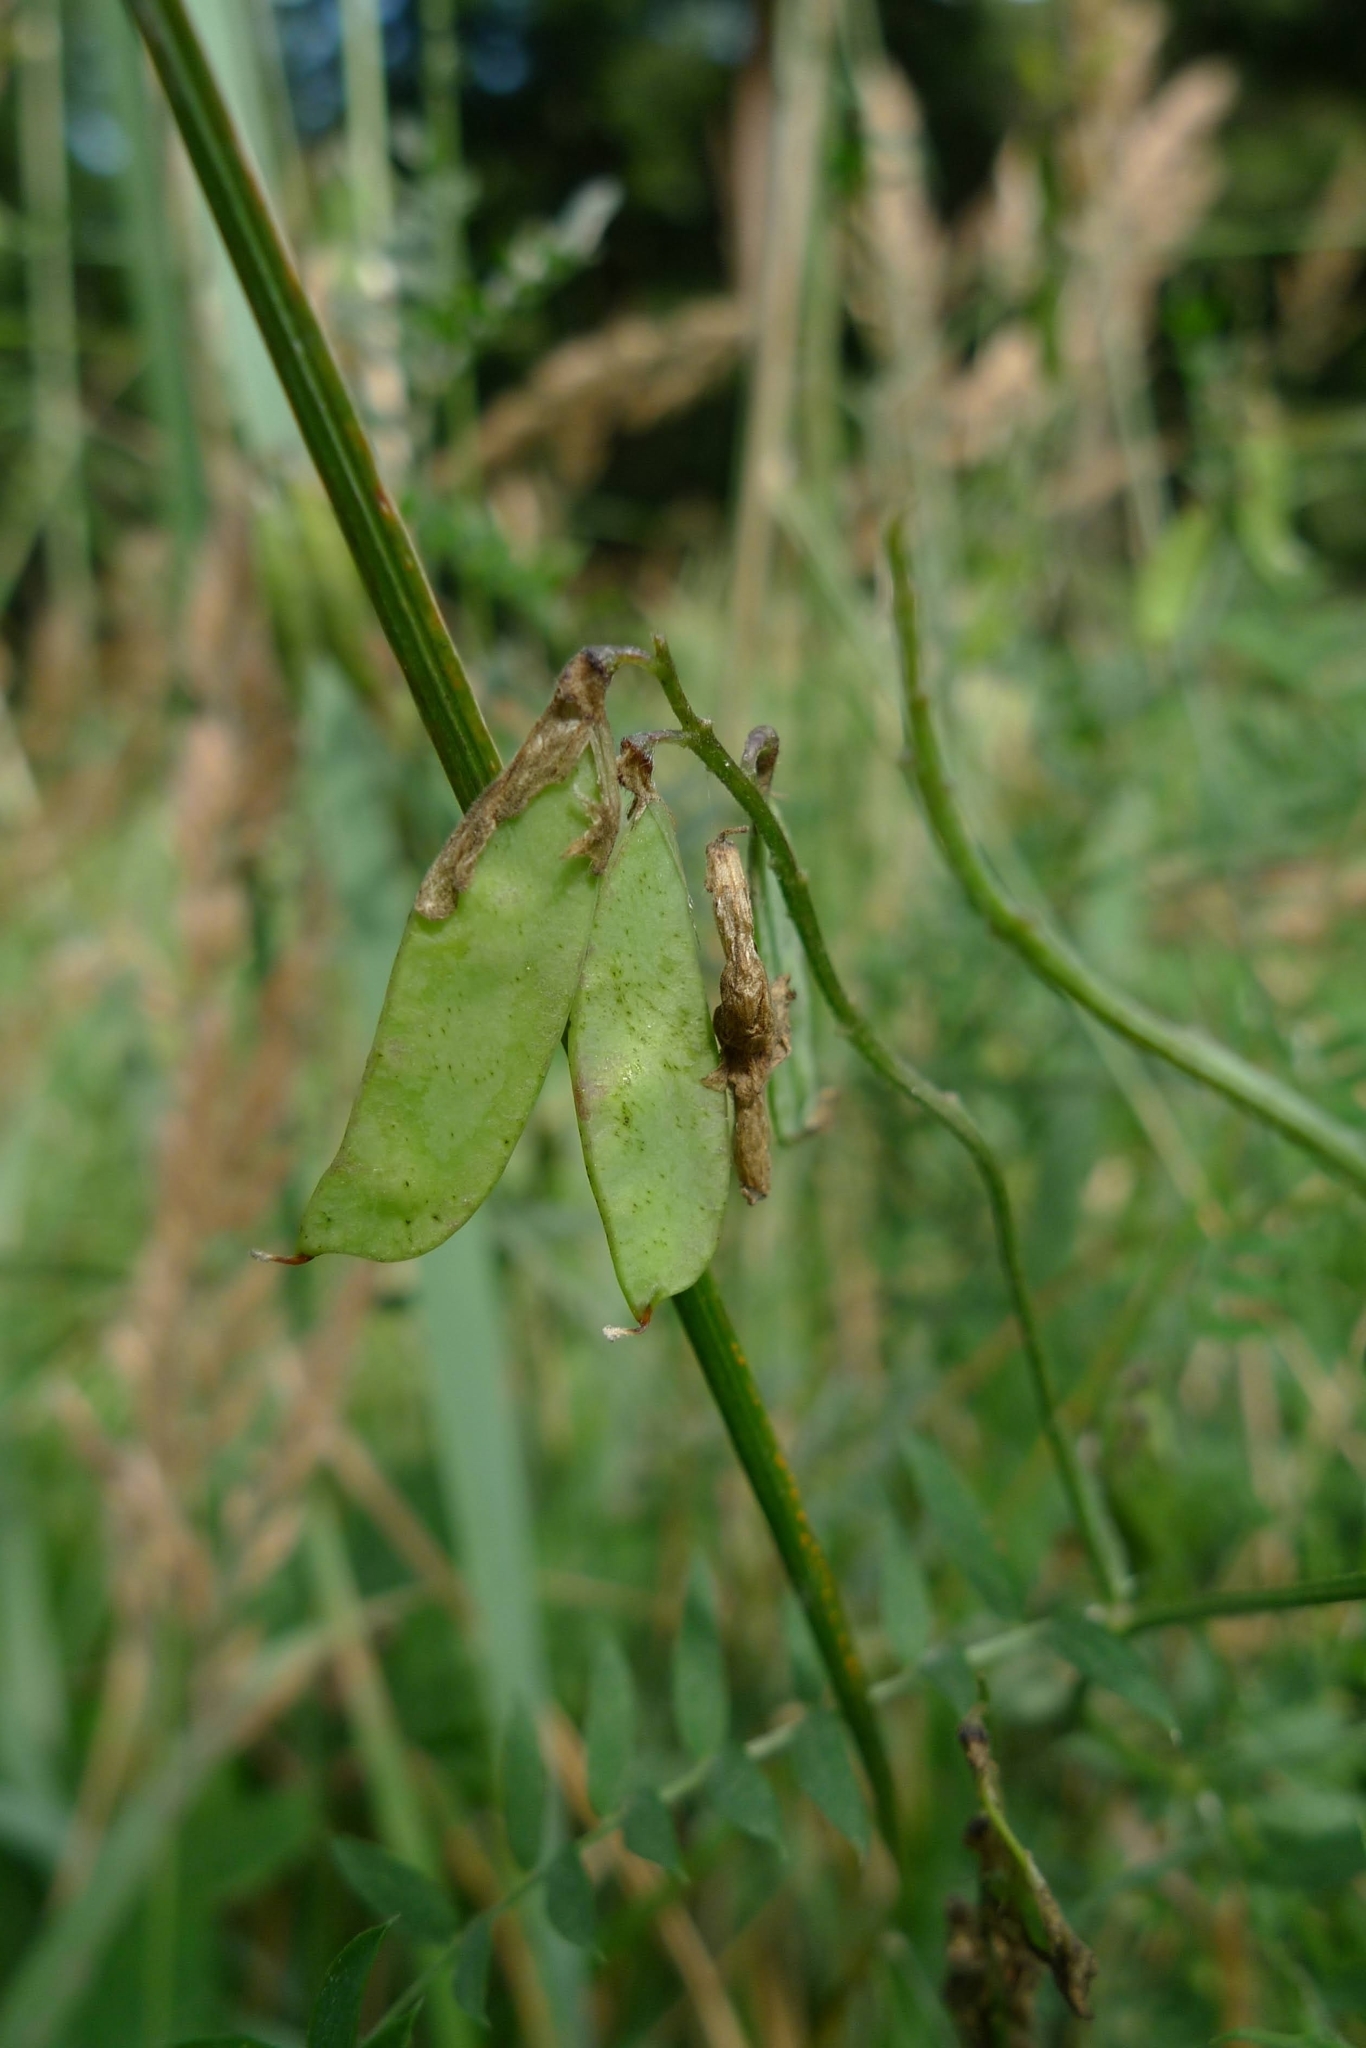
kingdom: Plantae
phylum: Tracheophyta
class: Magnoliopsida
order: Fabales
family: Fabaceae
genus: Vicia
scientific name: Vicia cracca
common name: Bird vetch
